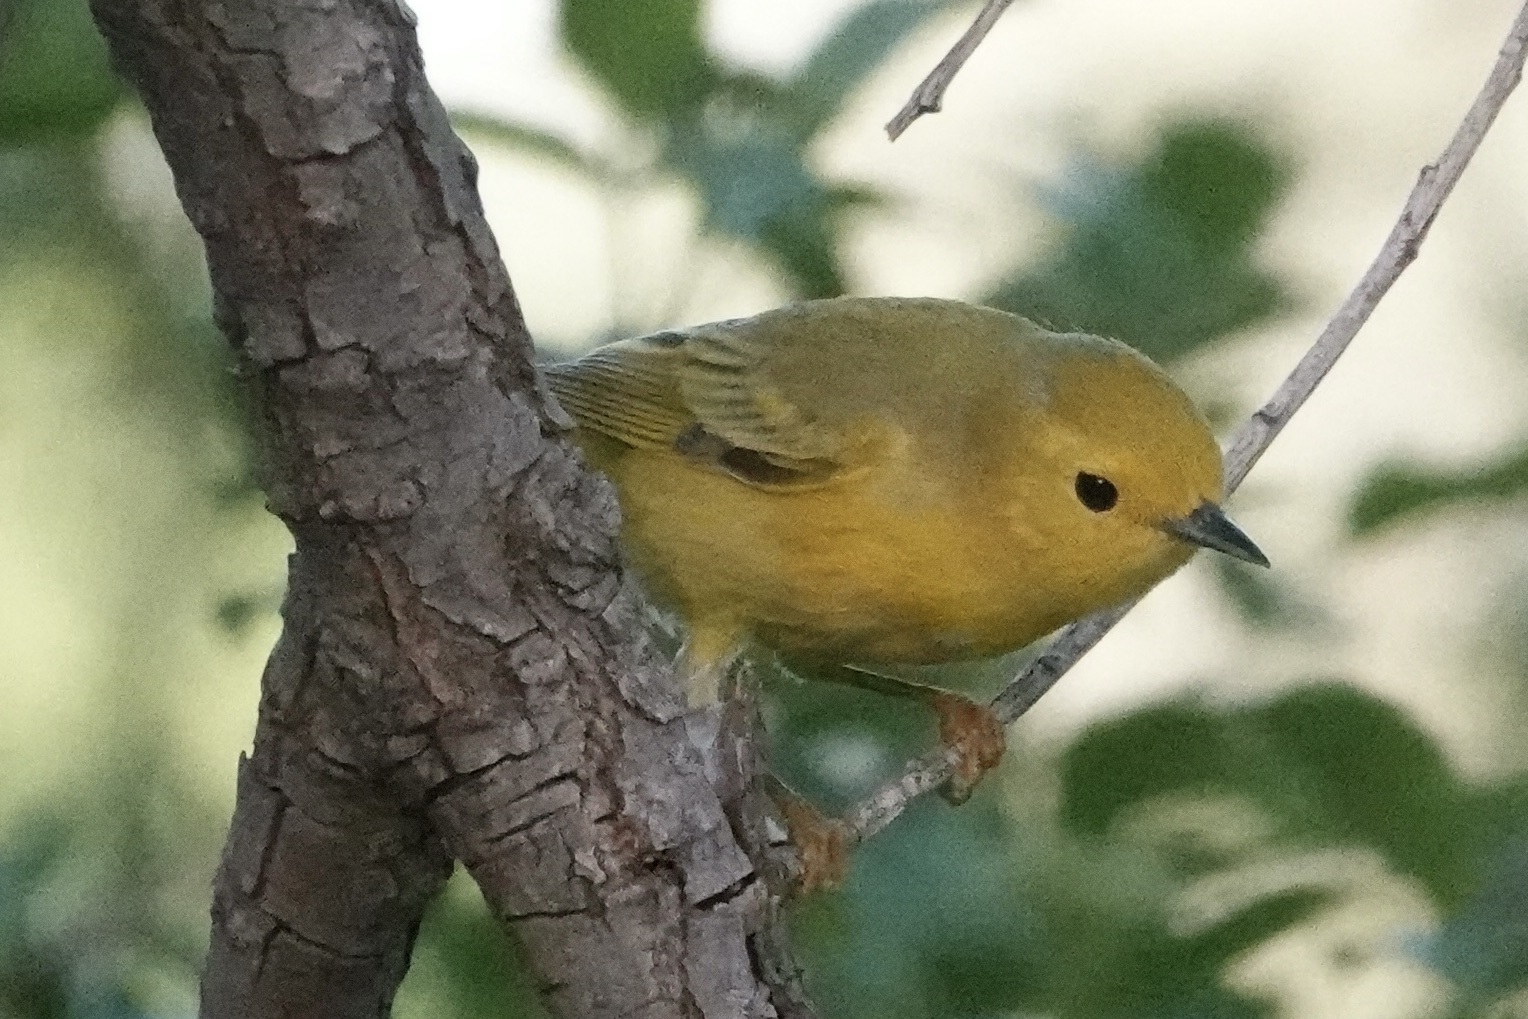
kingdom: Animalia
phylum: Chordata
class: Aves
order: Passeriformes
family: Parulidae
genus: Setophaga
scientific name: Setophaga petechia
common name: Yellow warbler
